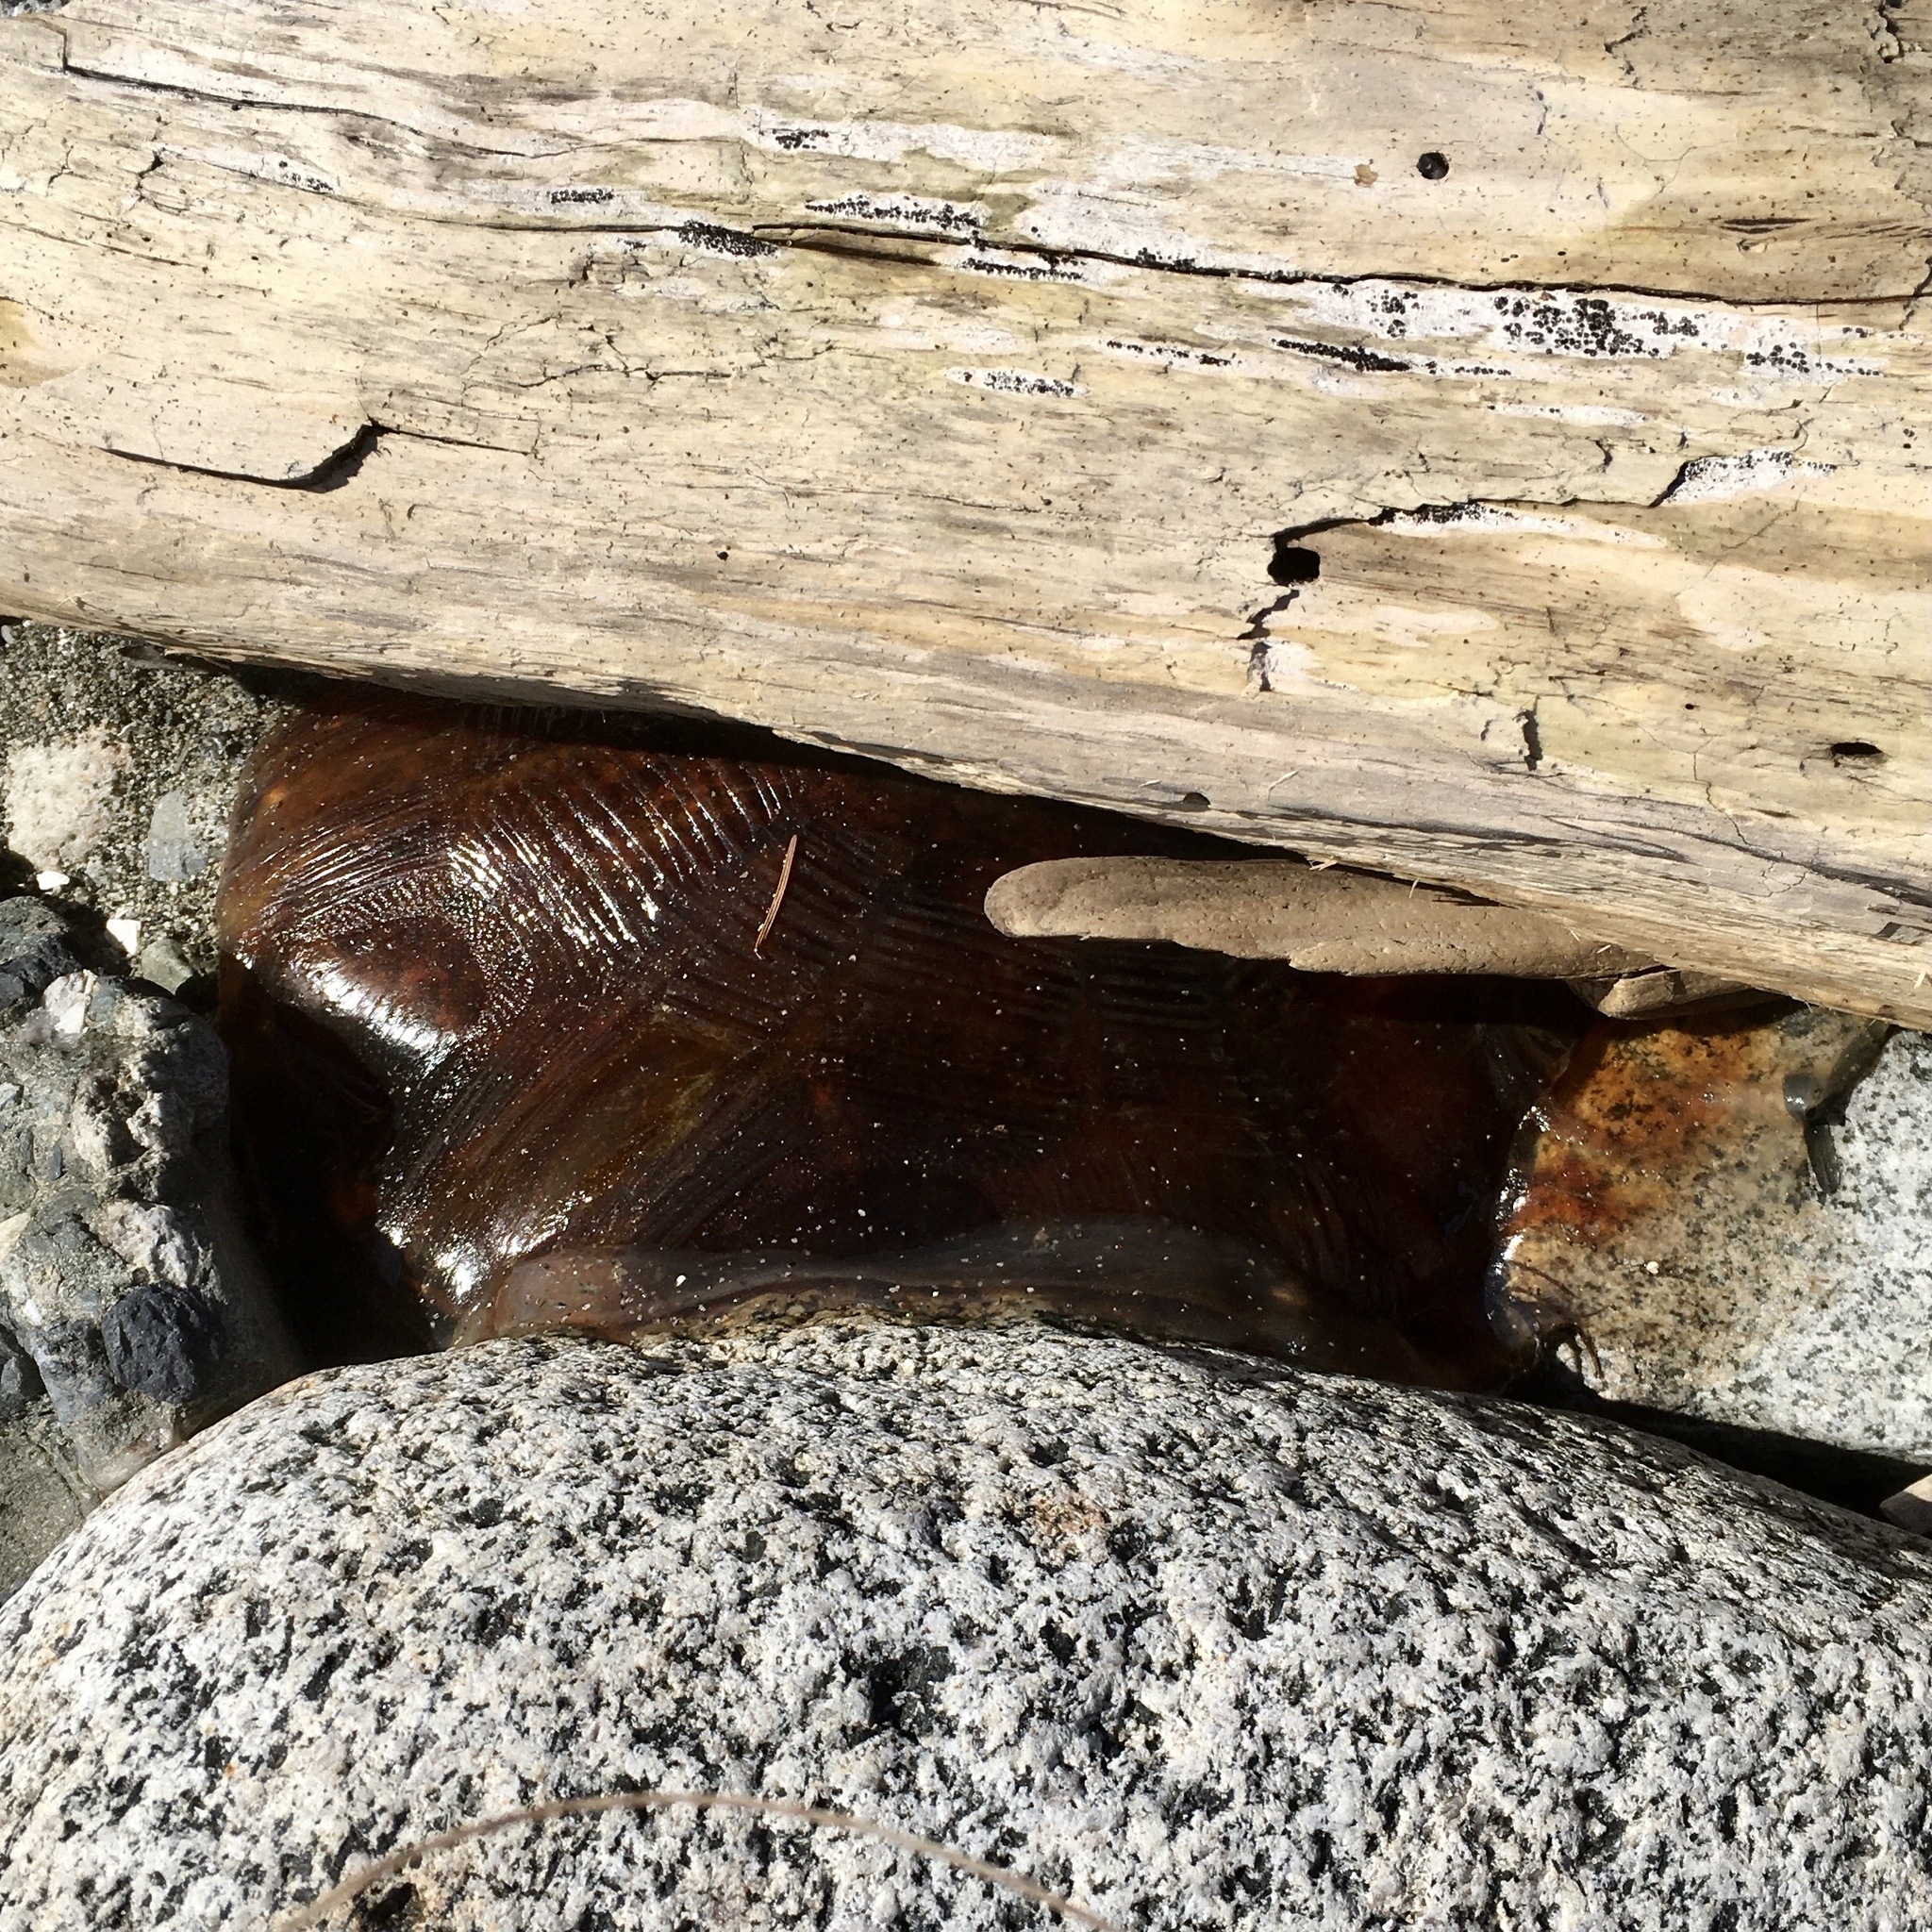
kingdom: Animalia
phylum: Cnidaria
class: Scyphozoa
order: Semaeostomeae
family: Cyaneidae
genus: Cyanea
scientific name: Cyanea ferruginea
